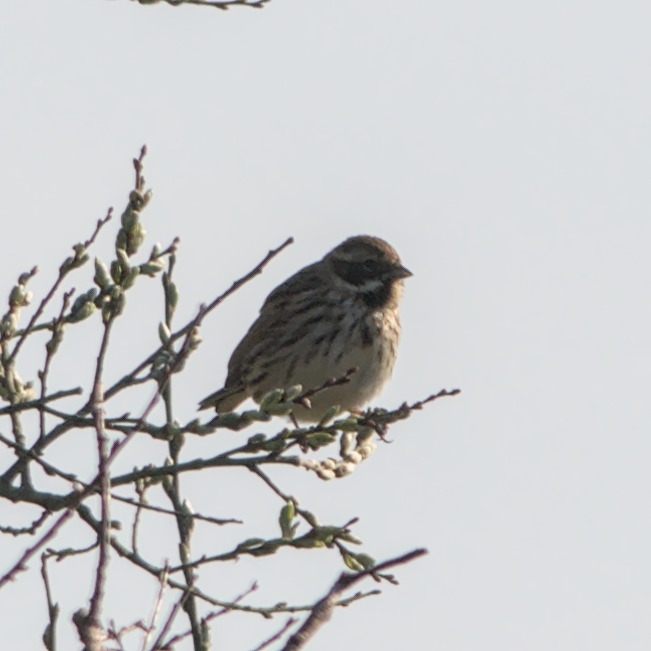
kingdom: Animalia
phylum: Chordata
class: Aves
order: Passeriformes
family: Emberizidae
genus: Emberiza
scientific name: Emberiza schoeniclus
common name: Reed bunting
